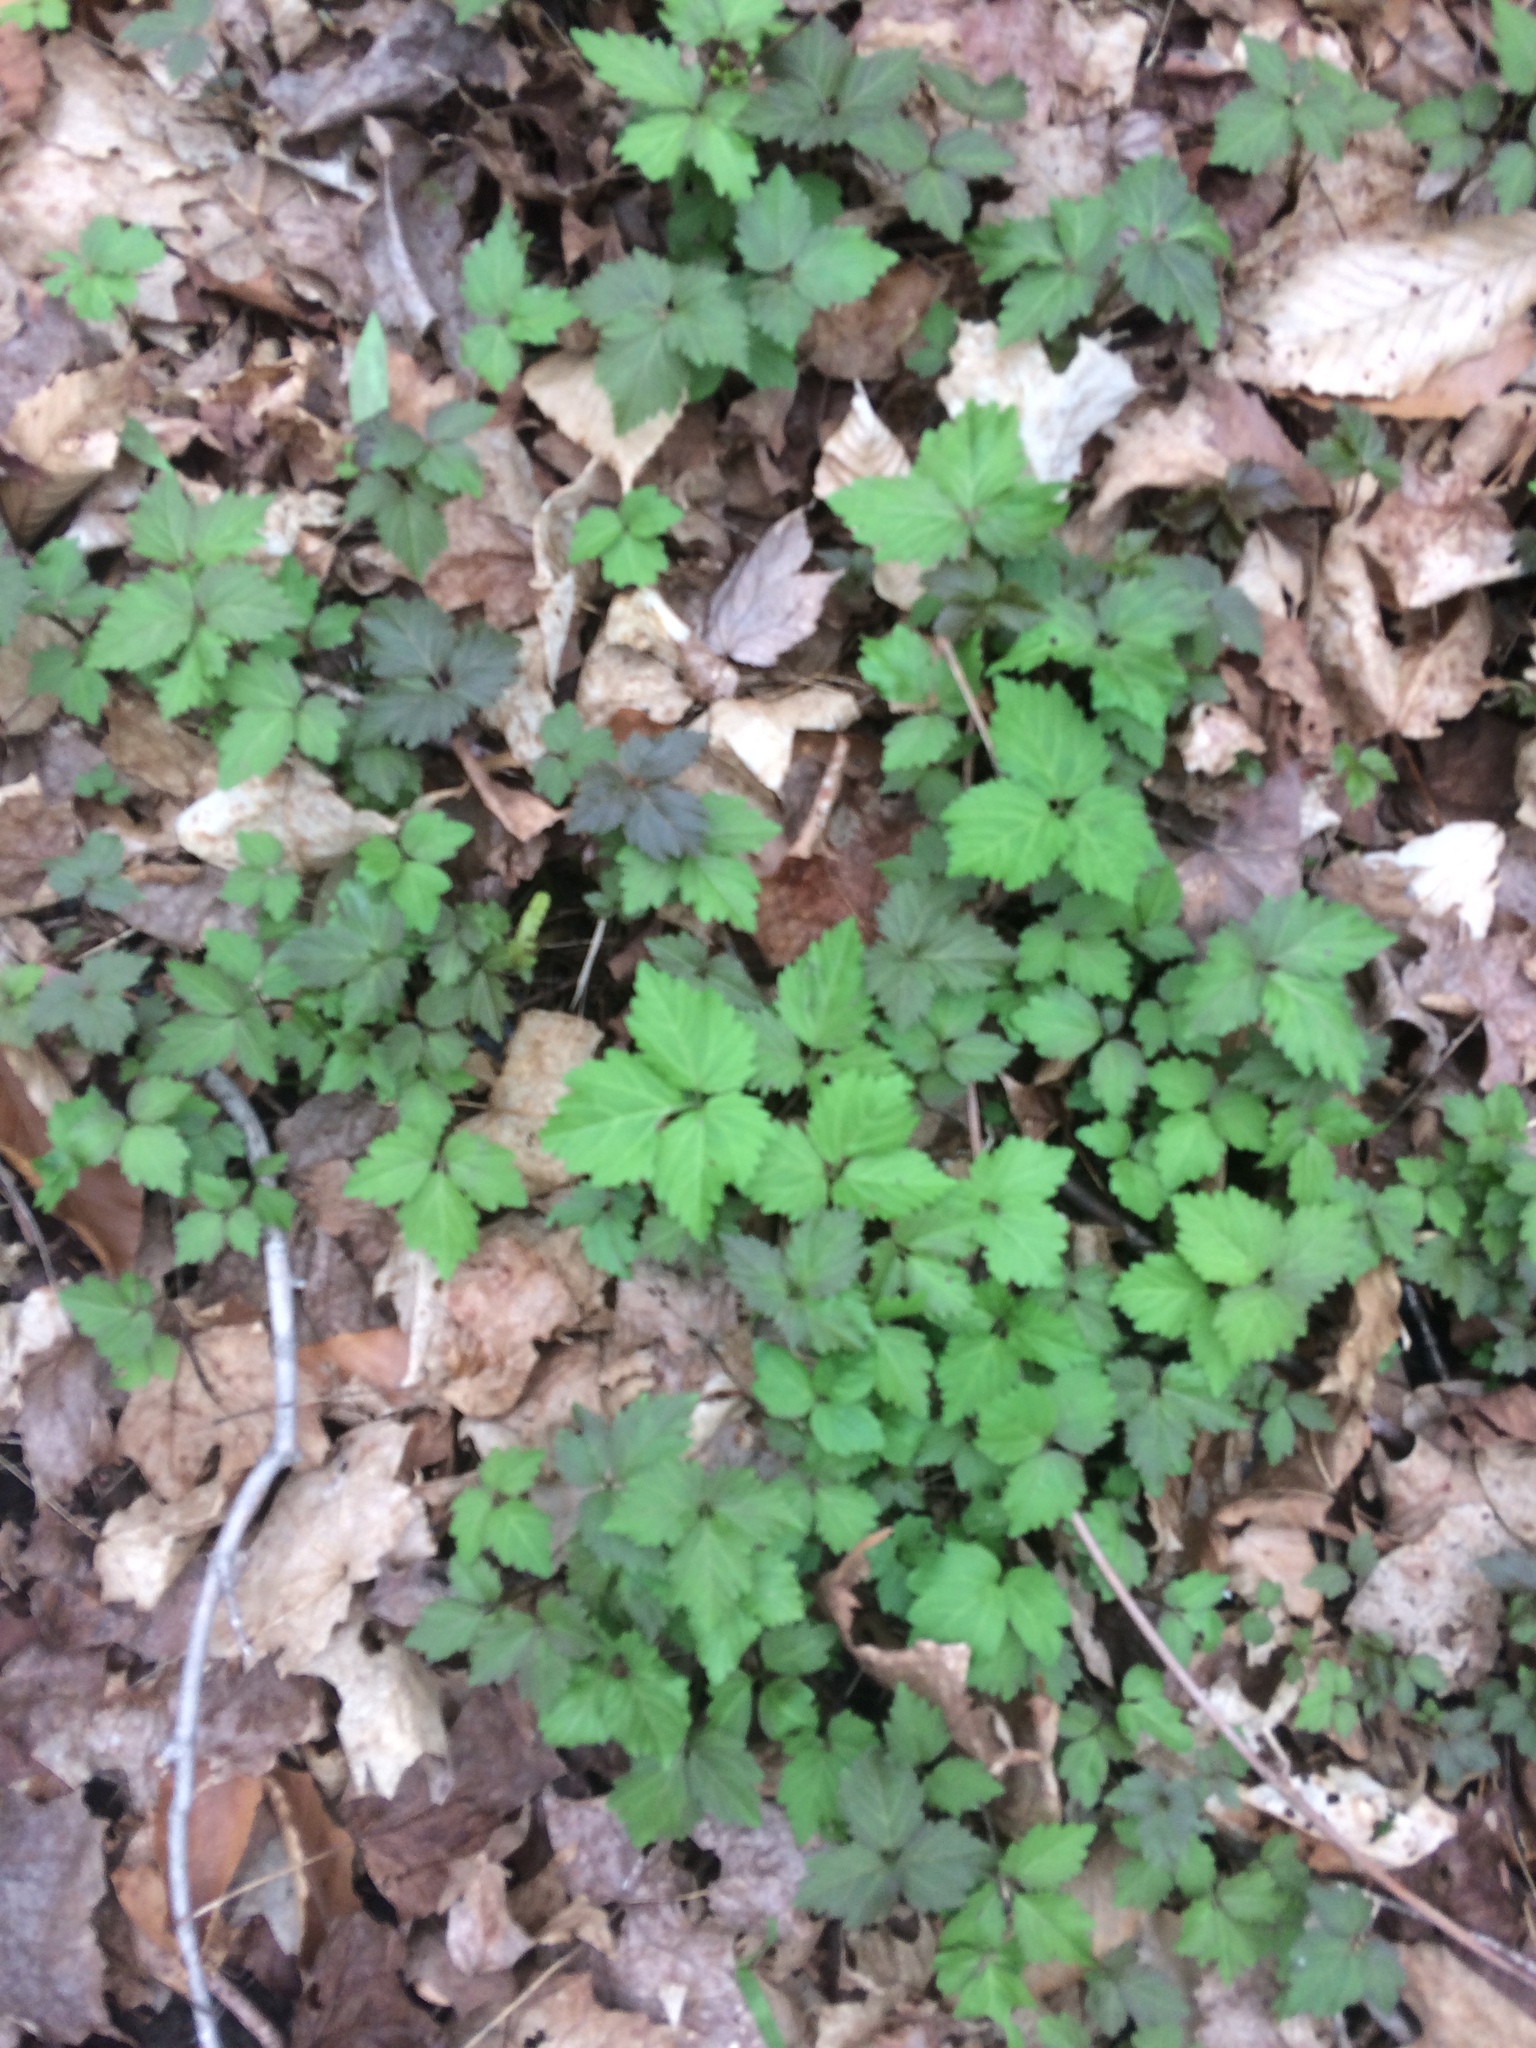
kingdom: Plantae
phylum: Tracheophyta
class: Magnoliopsida
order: Brassicales
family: Brassicaceae
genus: Cardamine
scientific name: Cardamine diphylla
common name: Broad-leaved toothwort
